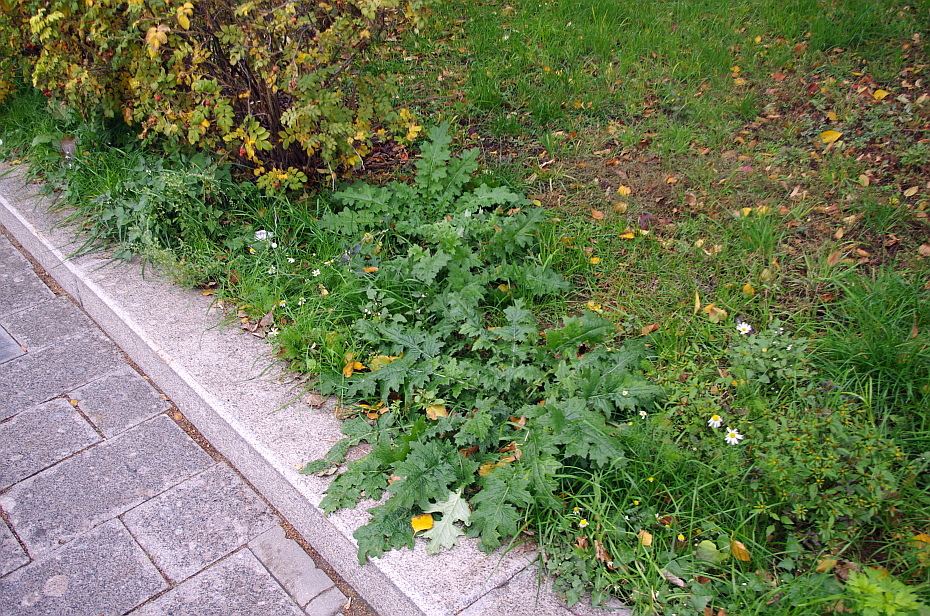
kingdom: Plantae
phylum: Tracheophyta
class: Magnoliopsida
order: Asterales
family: Asteraceae
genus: Carduus
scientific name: Carduus crispus
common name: Welted thistle
